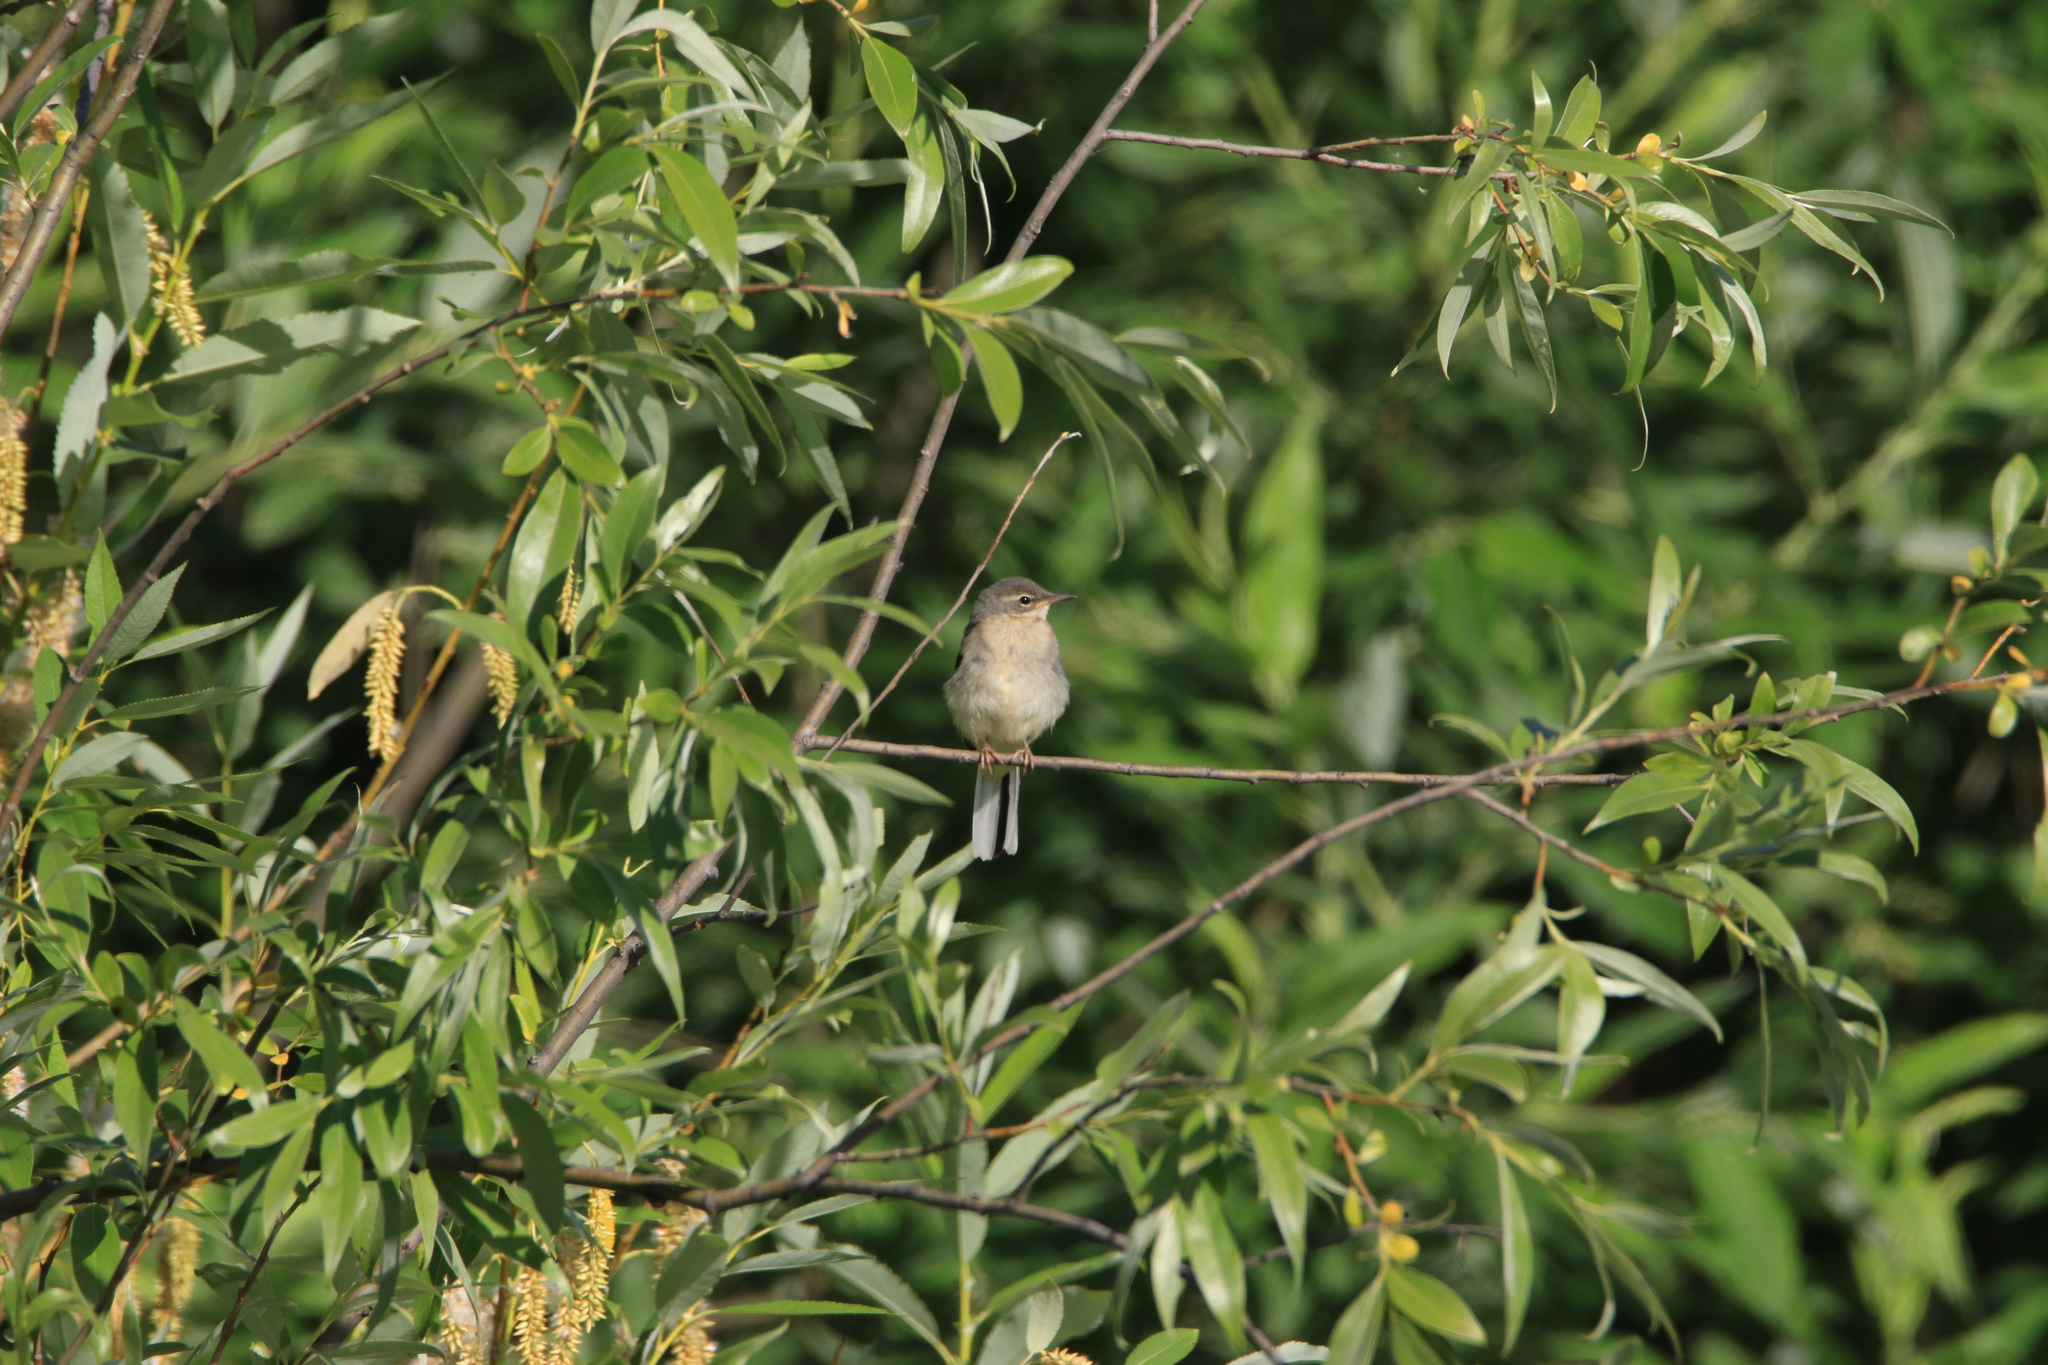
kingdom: Animalia
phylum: Chordata
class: Aves
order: Passeriformes
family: Motacillidae
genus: Motacilla
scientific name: Motacilla cinerea
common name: Grey wagtail
